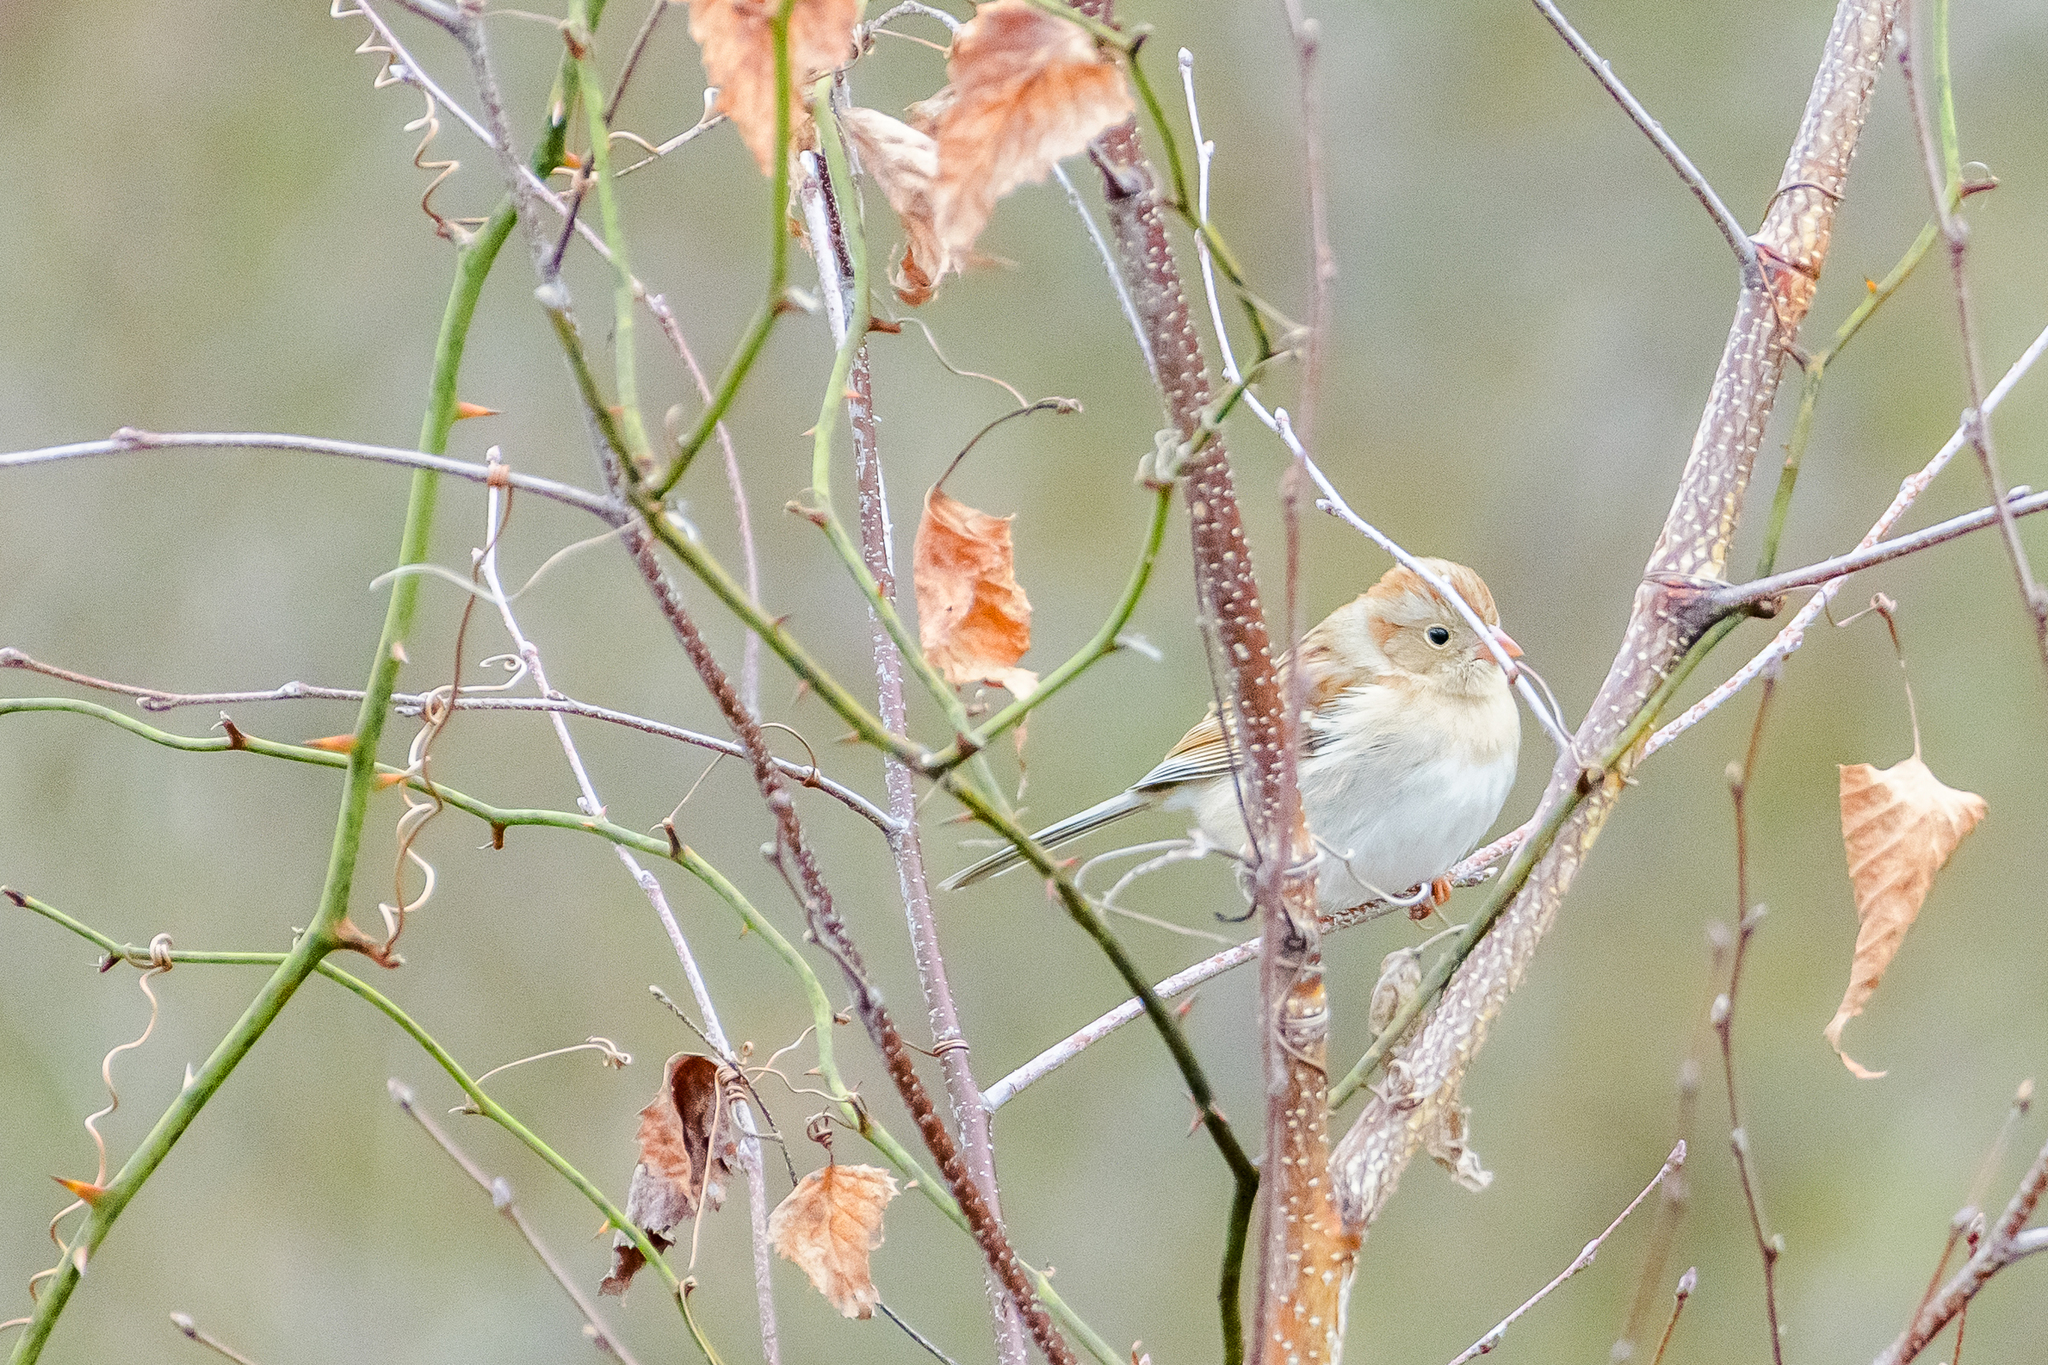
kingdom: Animalia
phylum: Chordata
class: Aves
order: Passeriformes
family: Passerellidae
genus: Spizella
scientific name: Spizella pusilla
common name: Field sparrow
